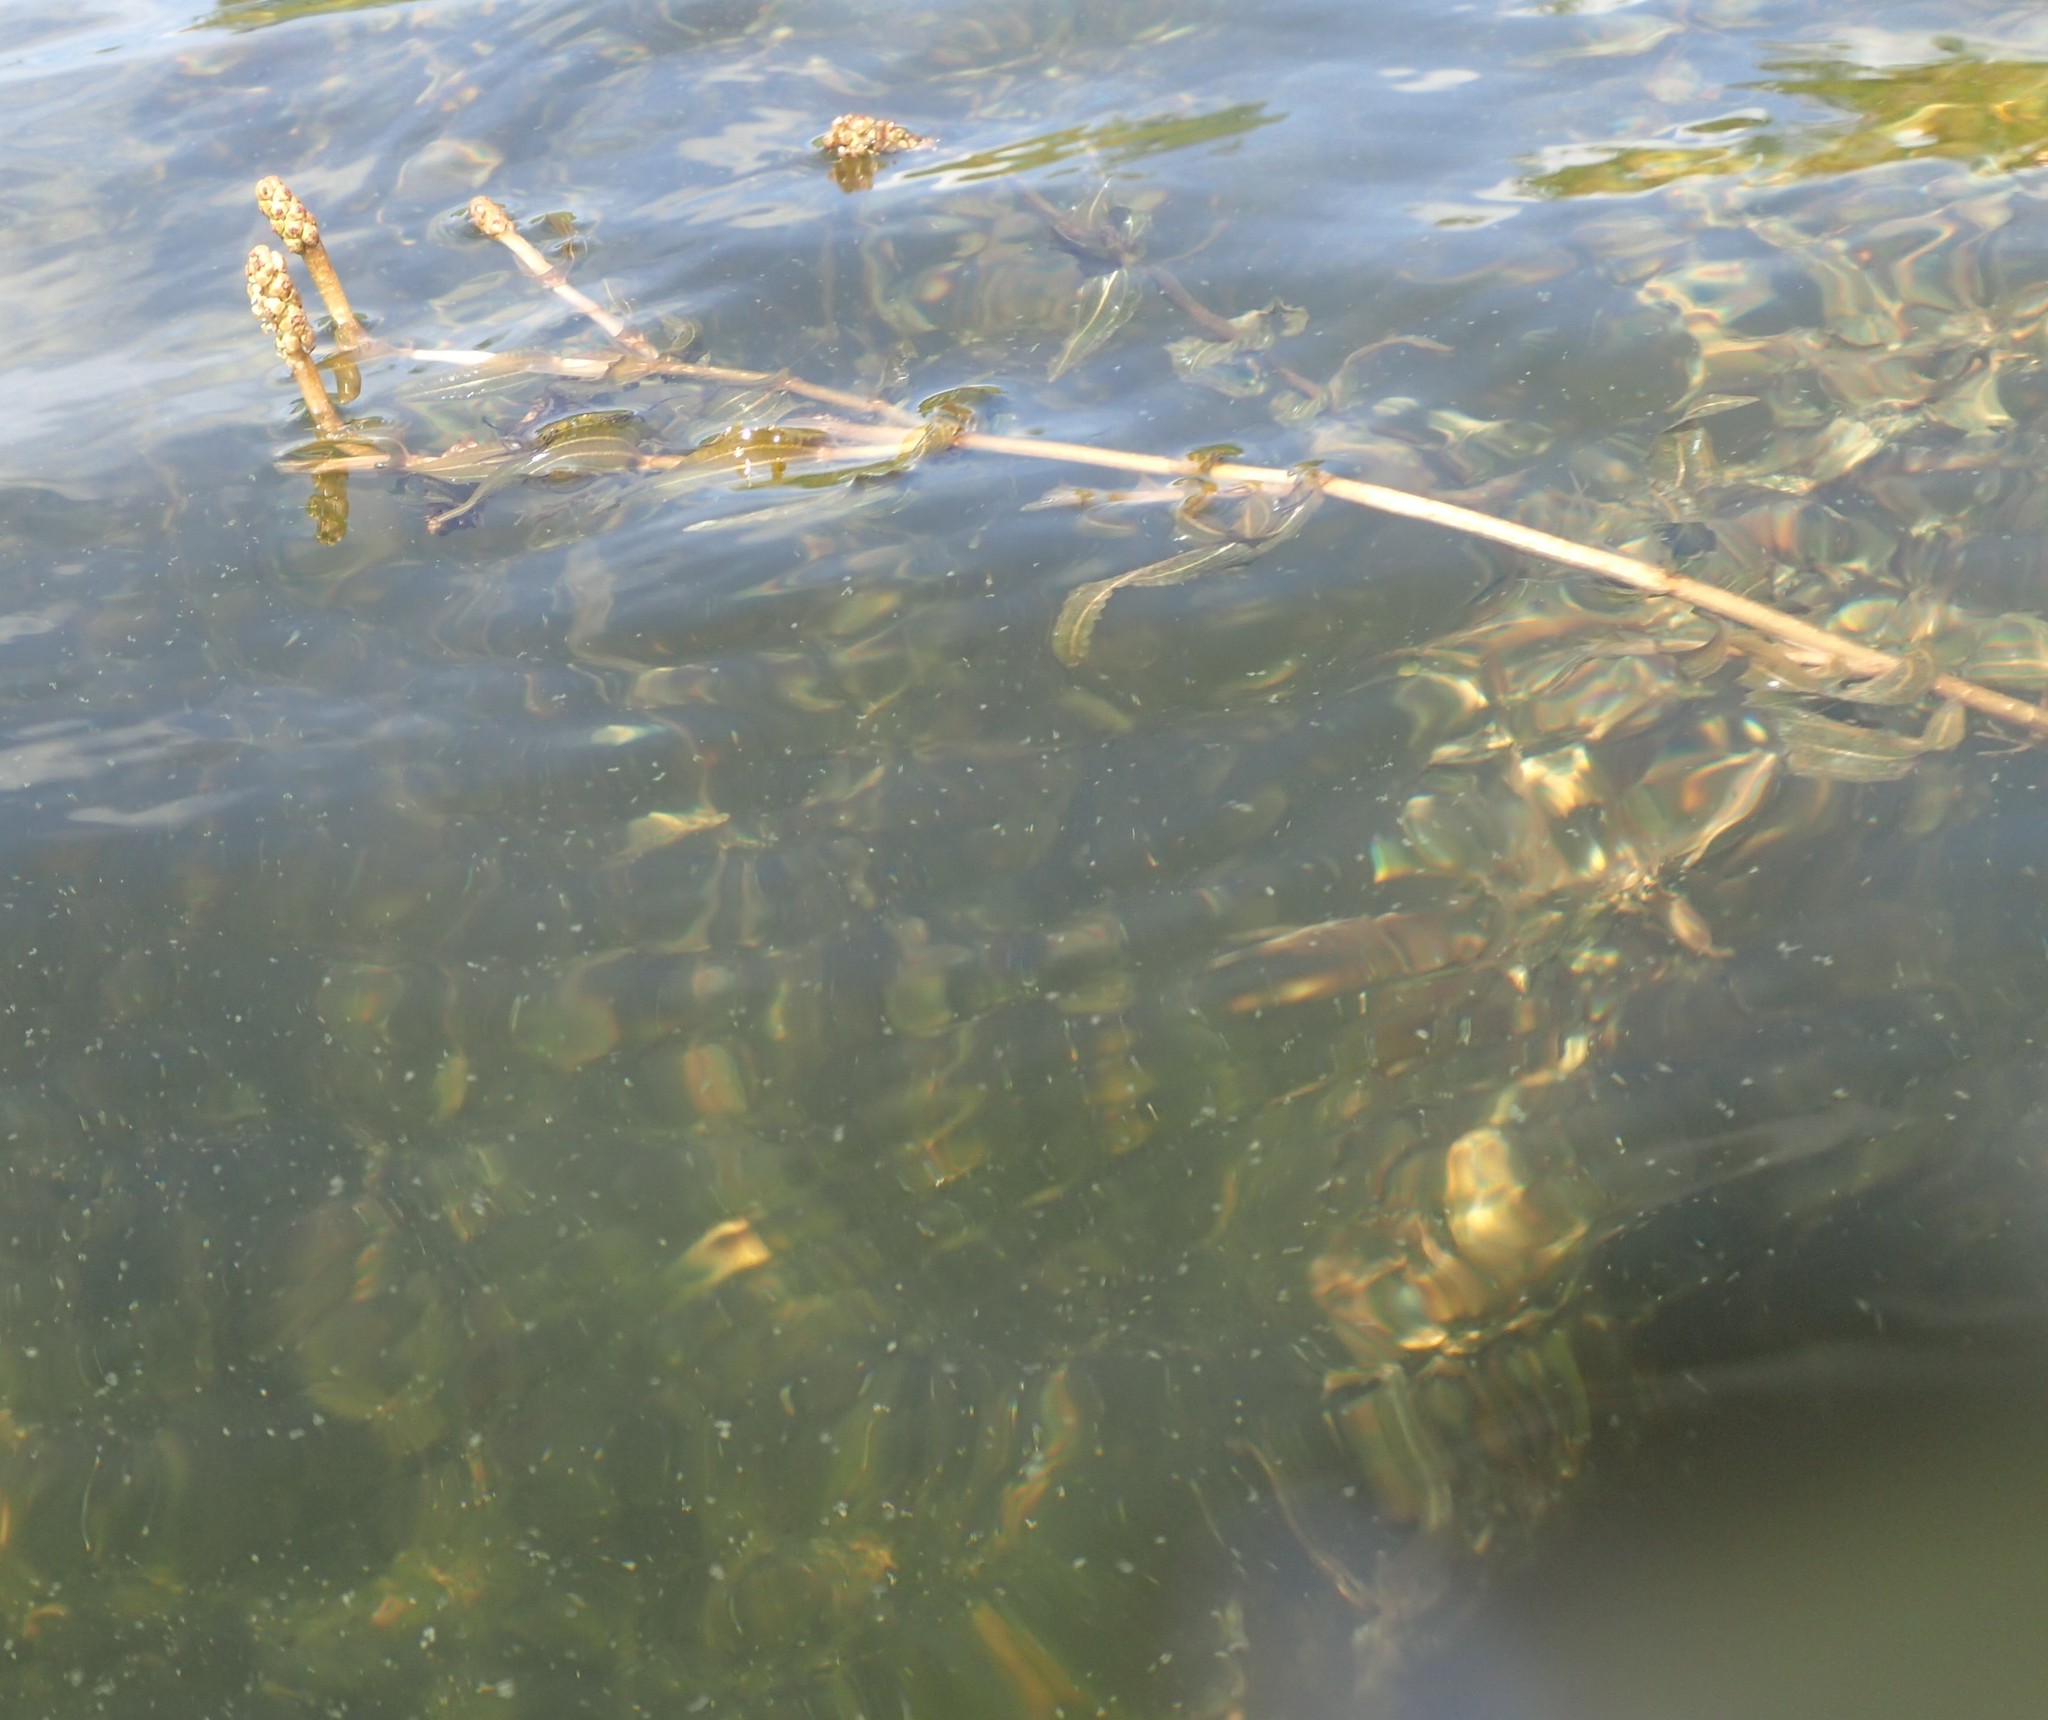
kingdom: Plantae
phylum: Tracheophyta
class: Liliopsida
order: Alismatales
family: Potamogetonaceae
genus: Potamogeton
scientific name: Potamogeton richardsonii
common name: Richardson's pondweed
